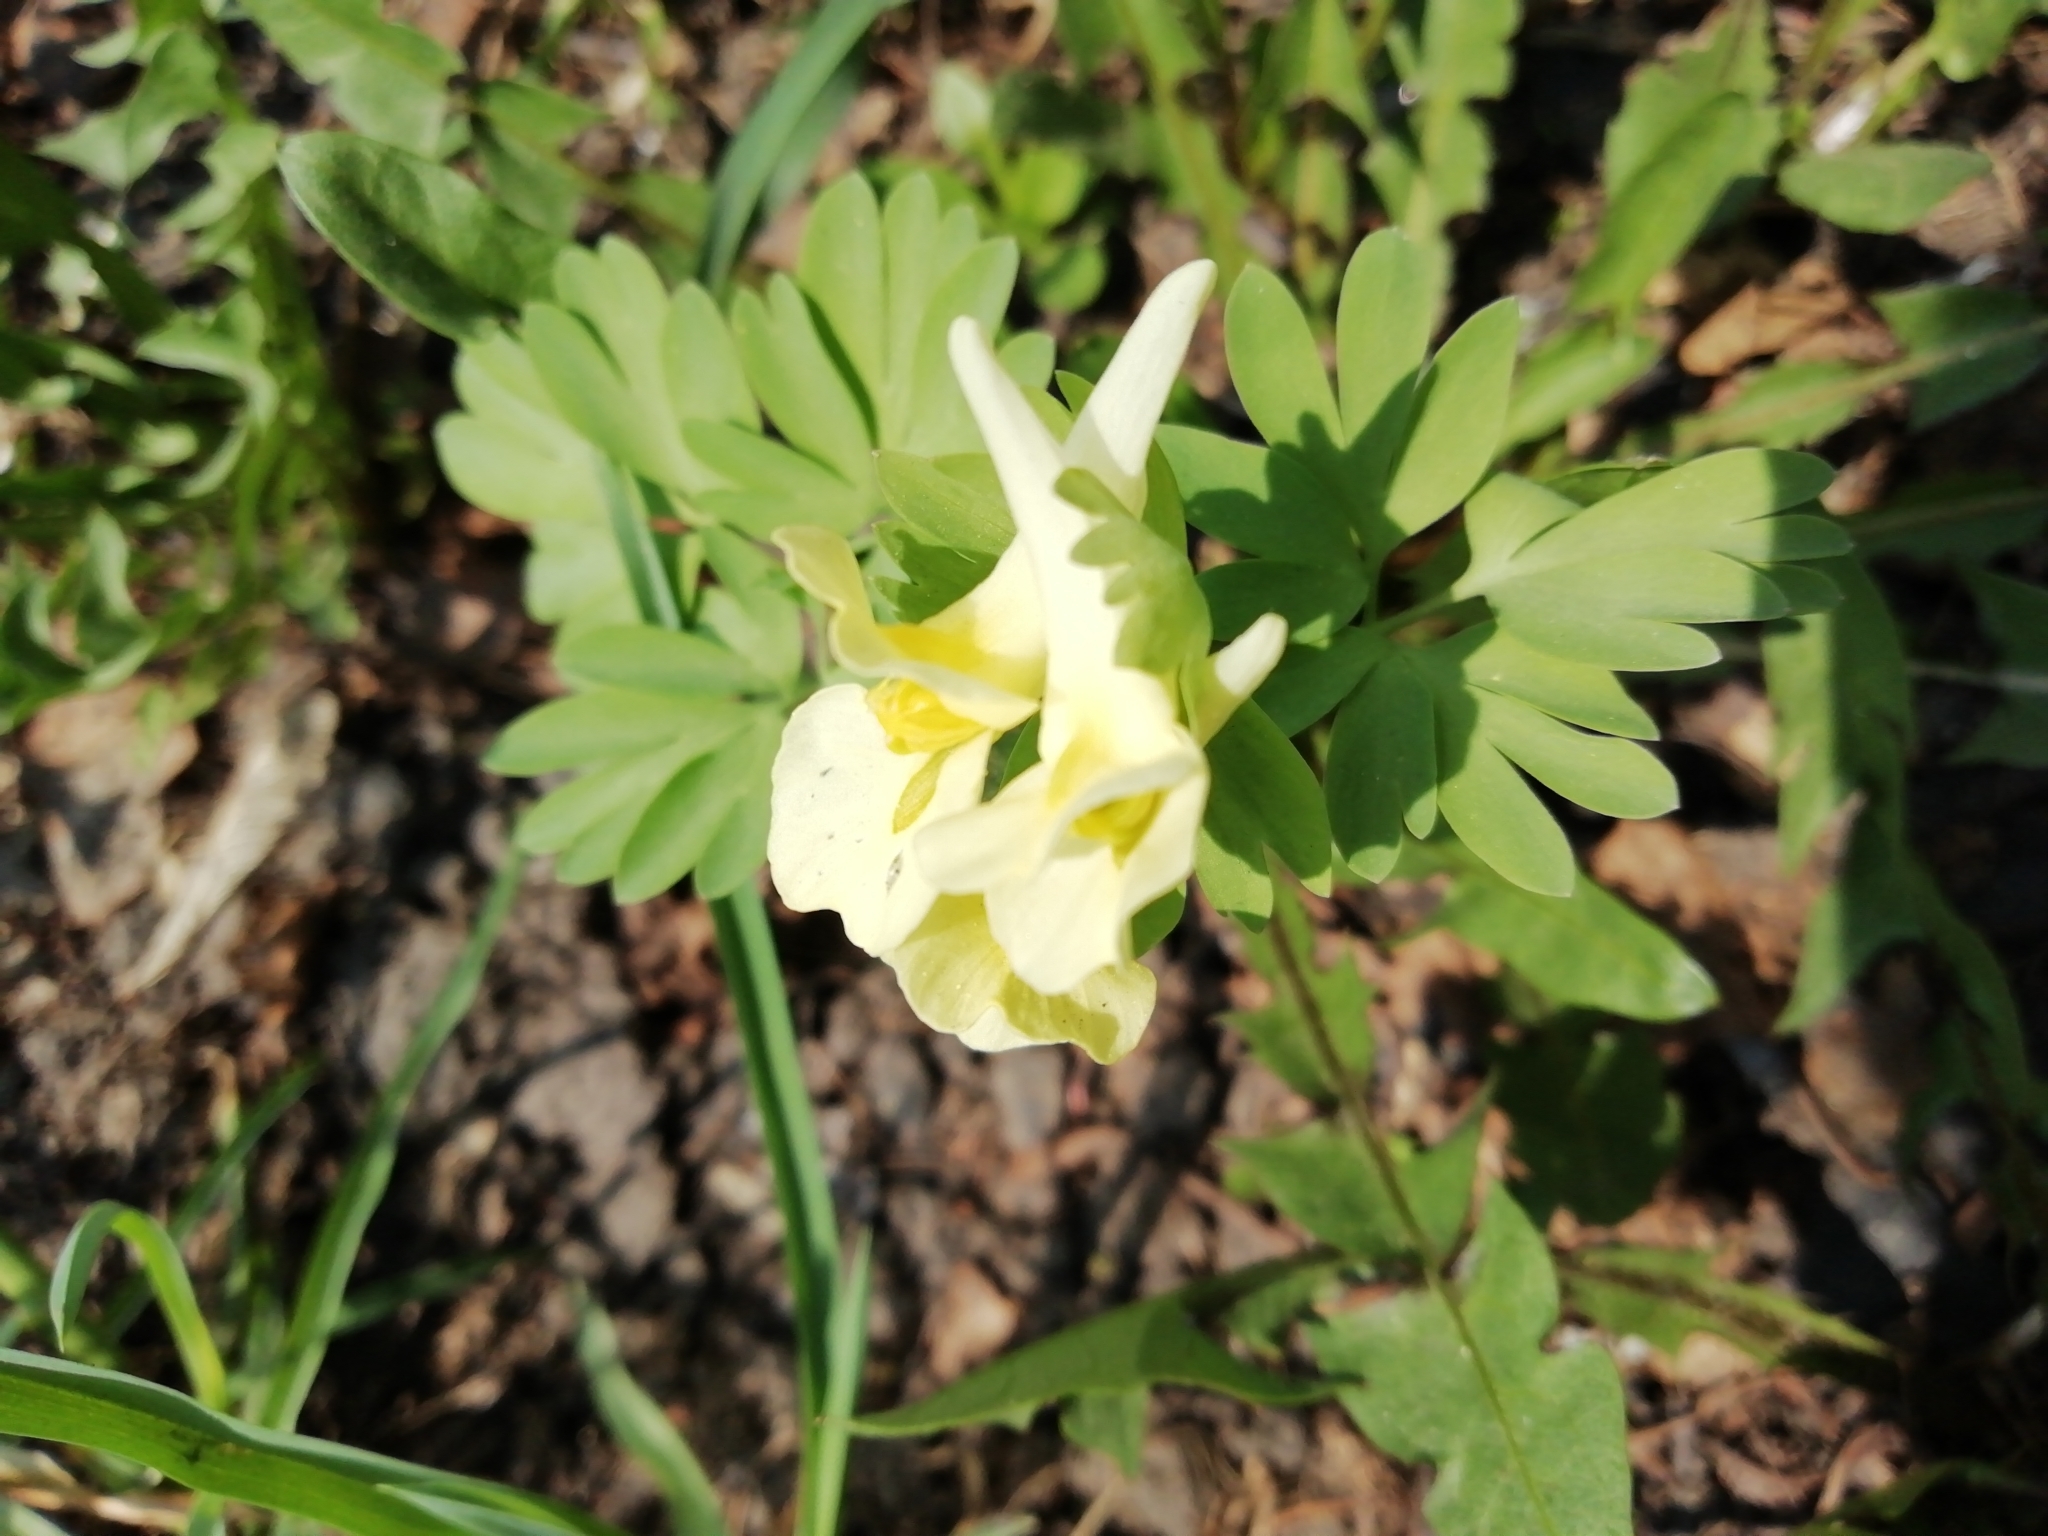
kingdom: Plantae
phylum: Tracheophyta
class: Magnoliopsida
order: Ranunculales
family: Papaveraceae
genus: Corydalis
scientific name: Corydalis bracteata
